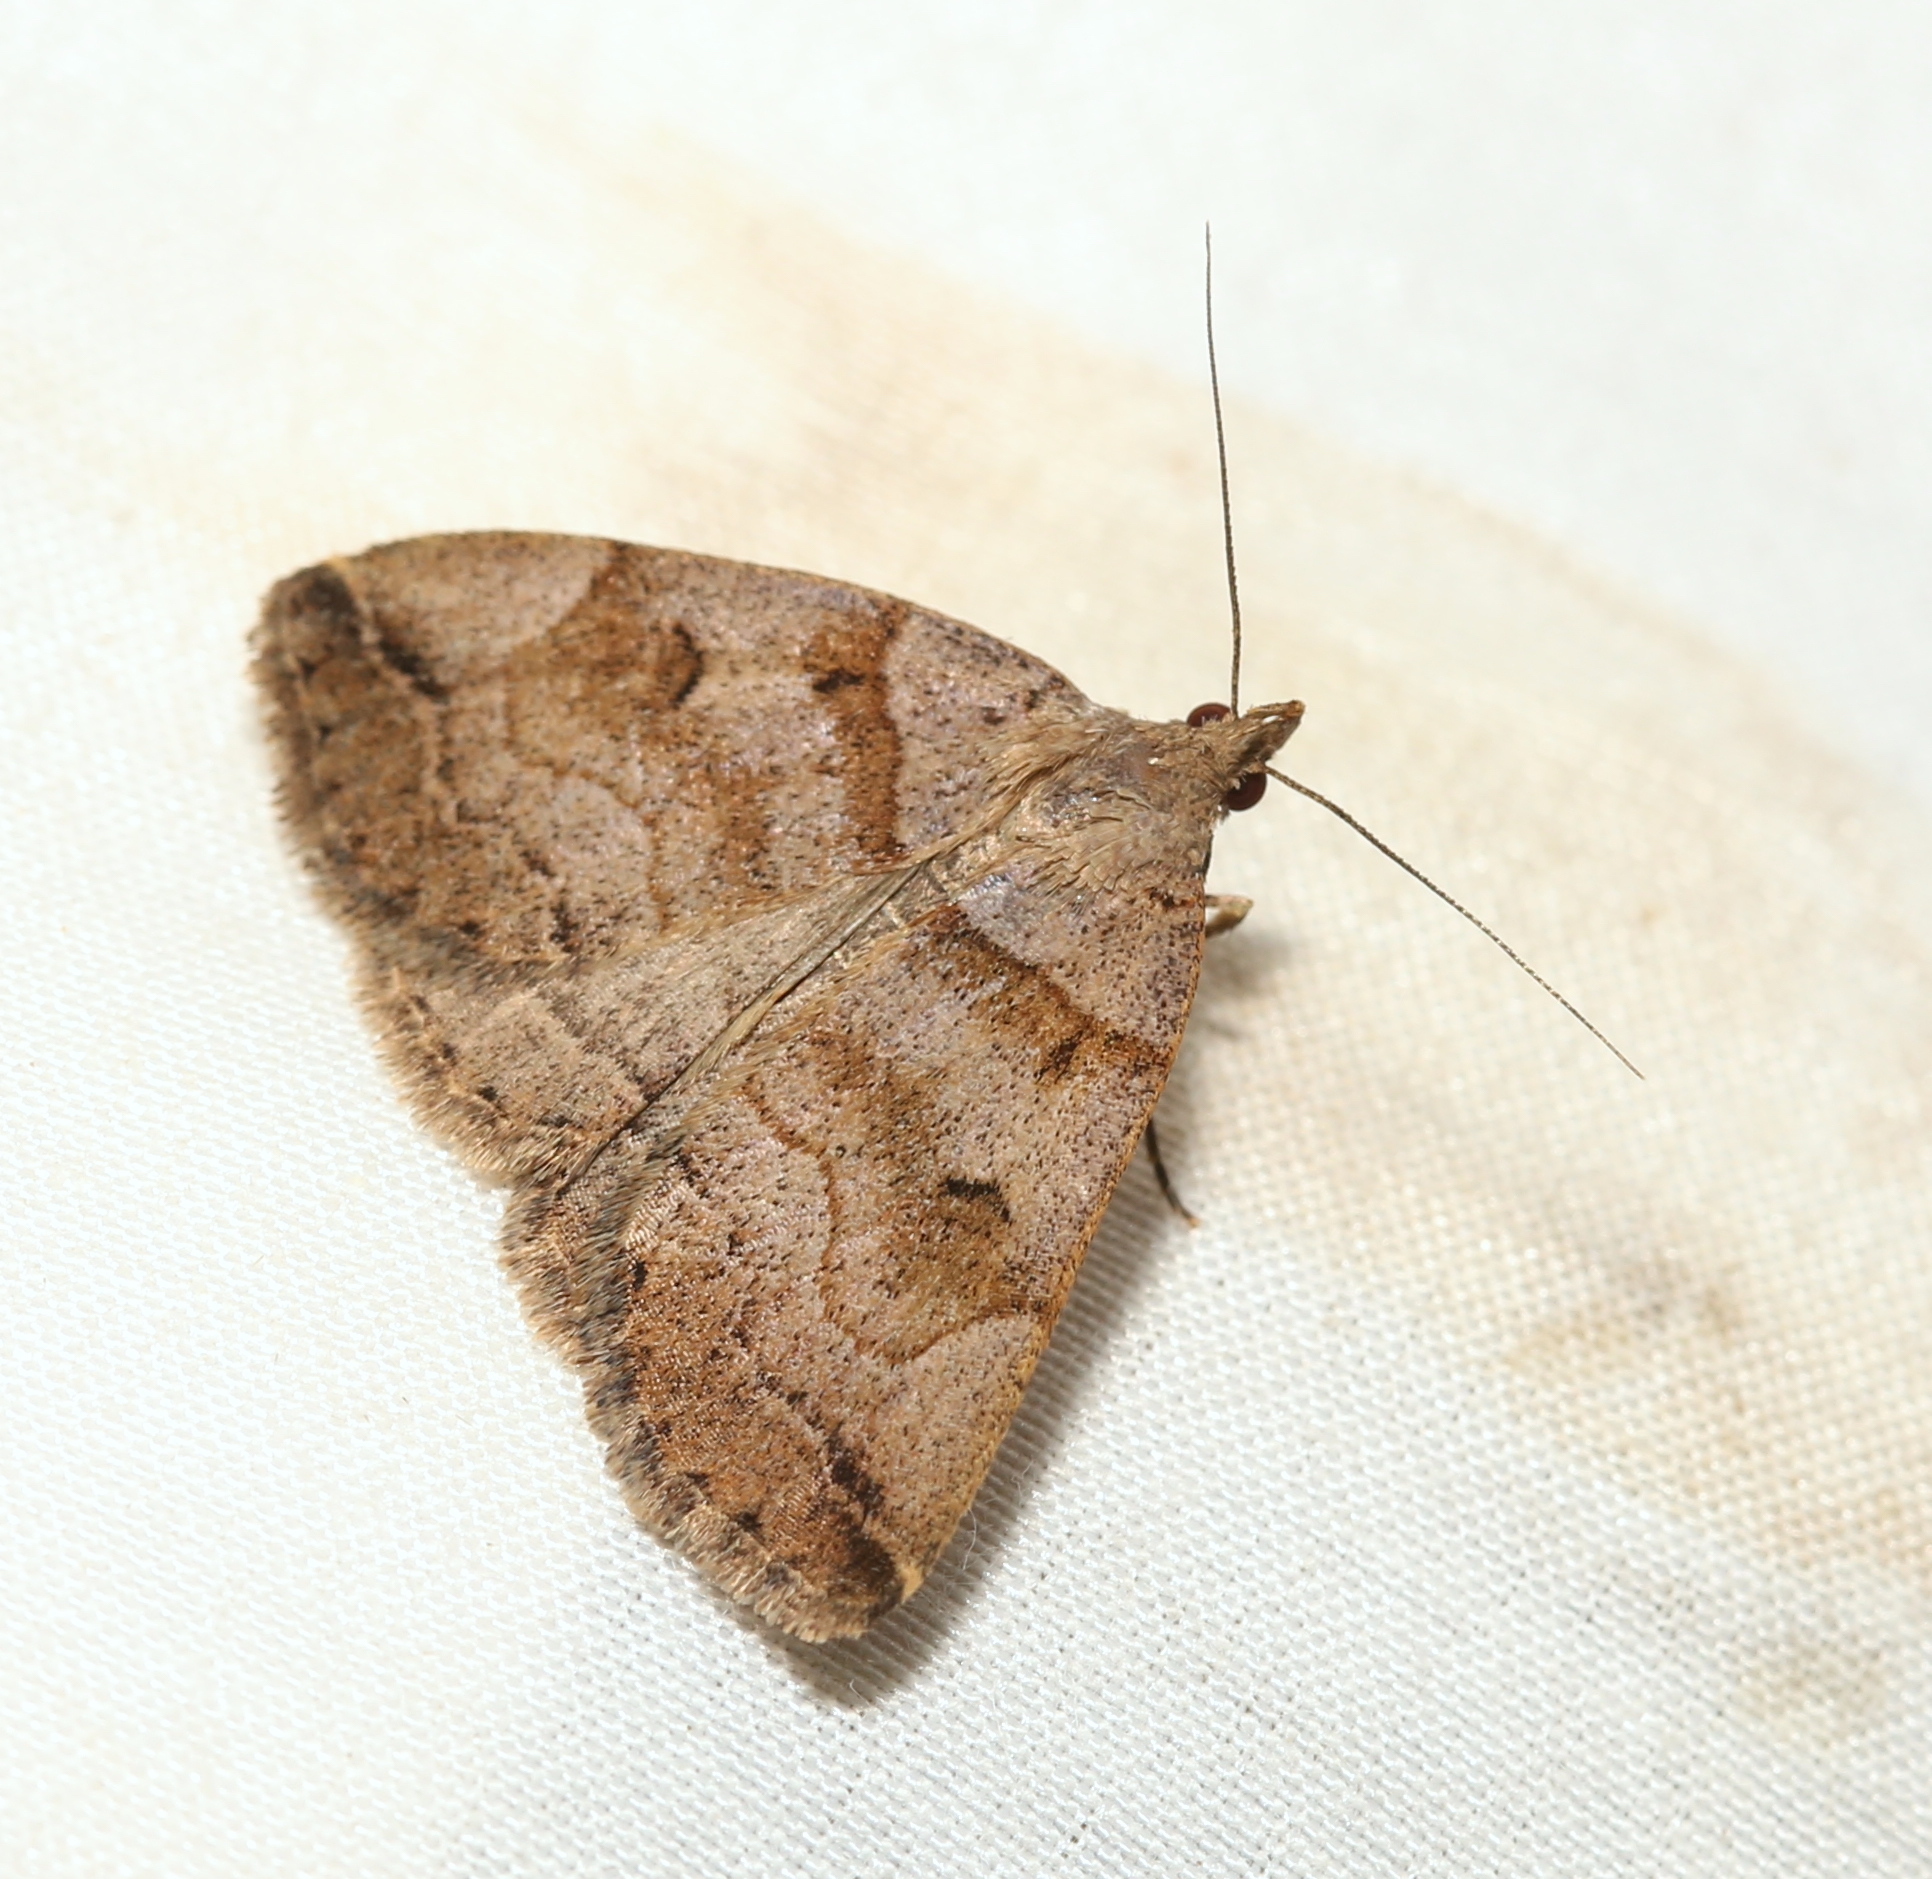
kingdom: Animalia
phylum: Arthropoda
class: Insecta
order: Lepidoptera
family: Erebidae
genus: Zanclognatha
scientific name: Zanclognatha laevigata
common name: Variable fan-foot
